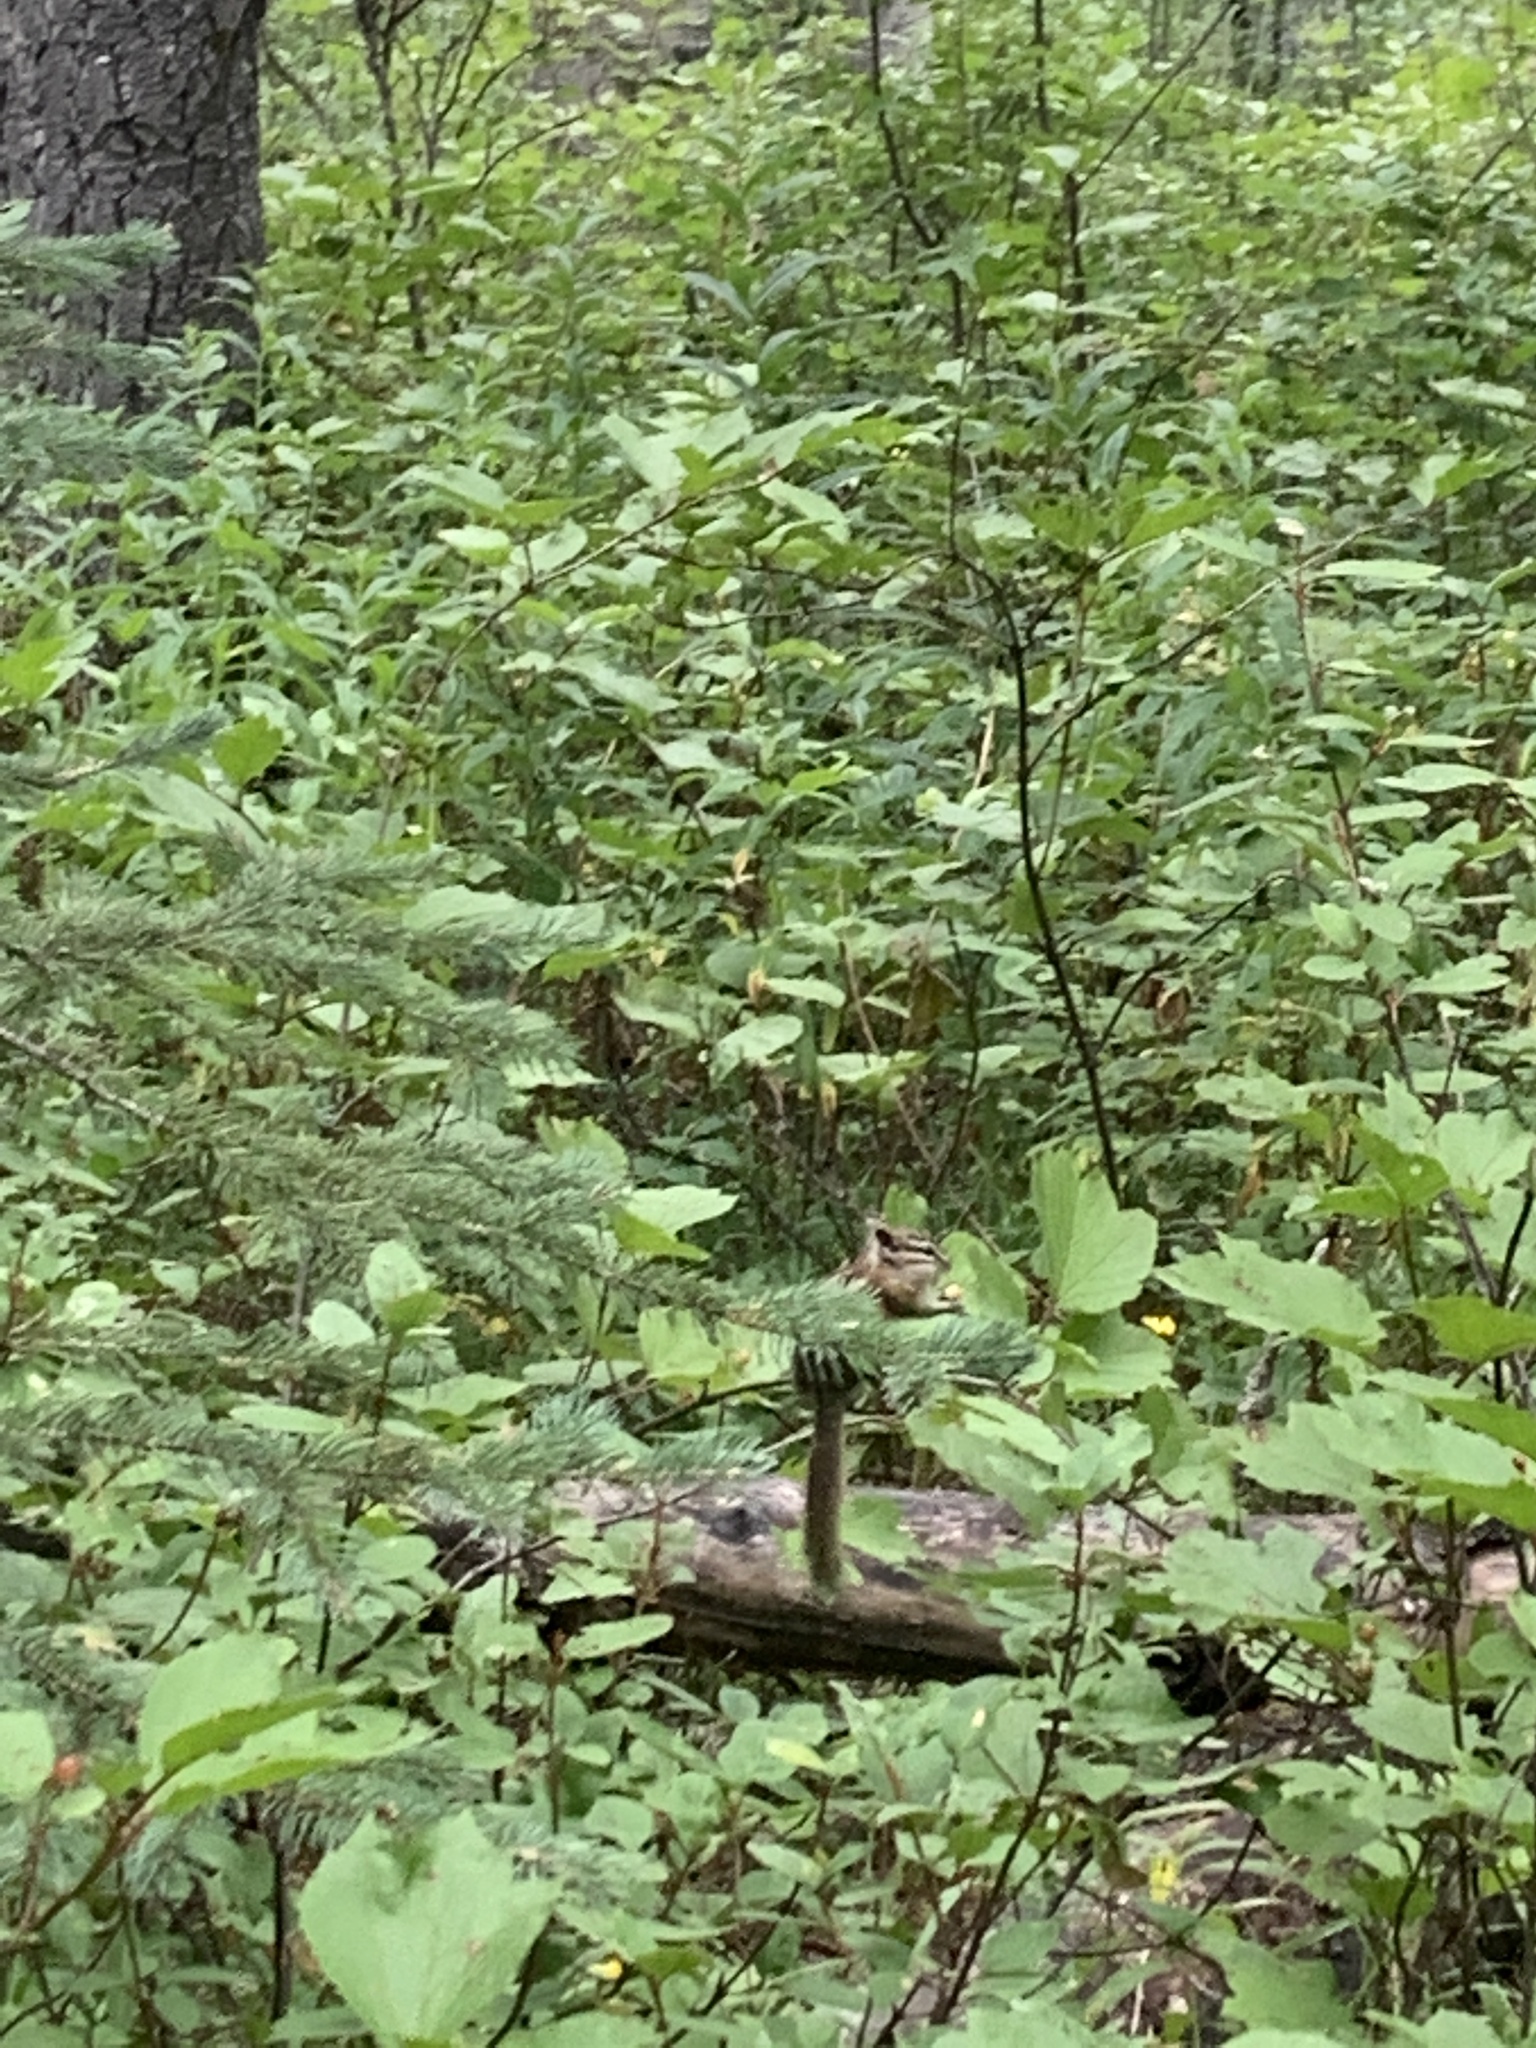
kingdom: Animalia
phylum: Chordata
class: Mammalia
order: Rodentia
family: Sciuridae
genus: Tamias
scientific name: Tamias minimus
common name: Least chipmunk
